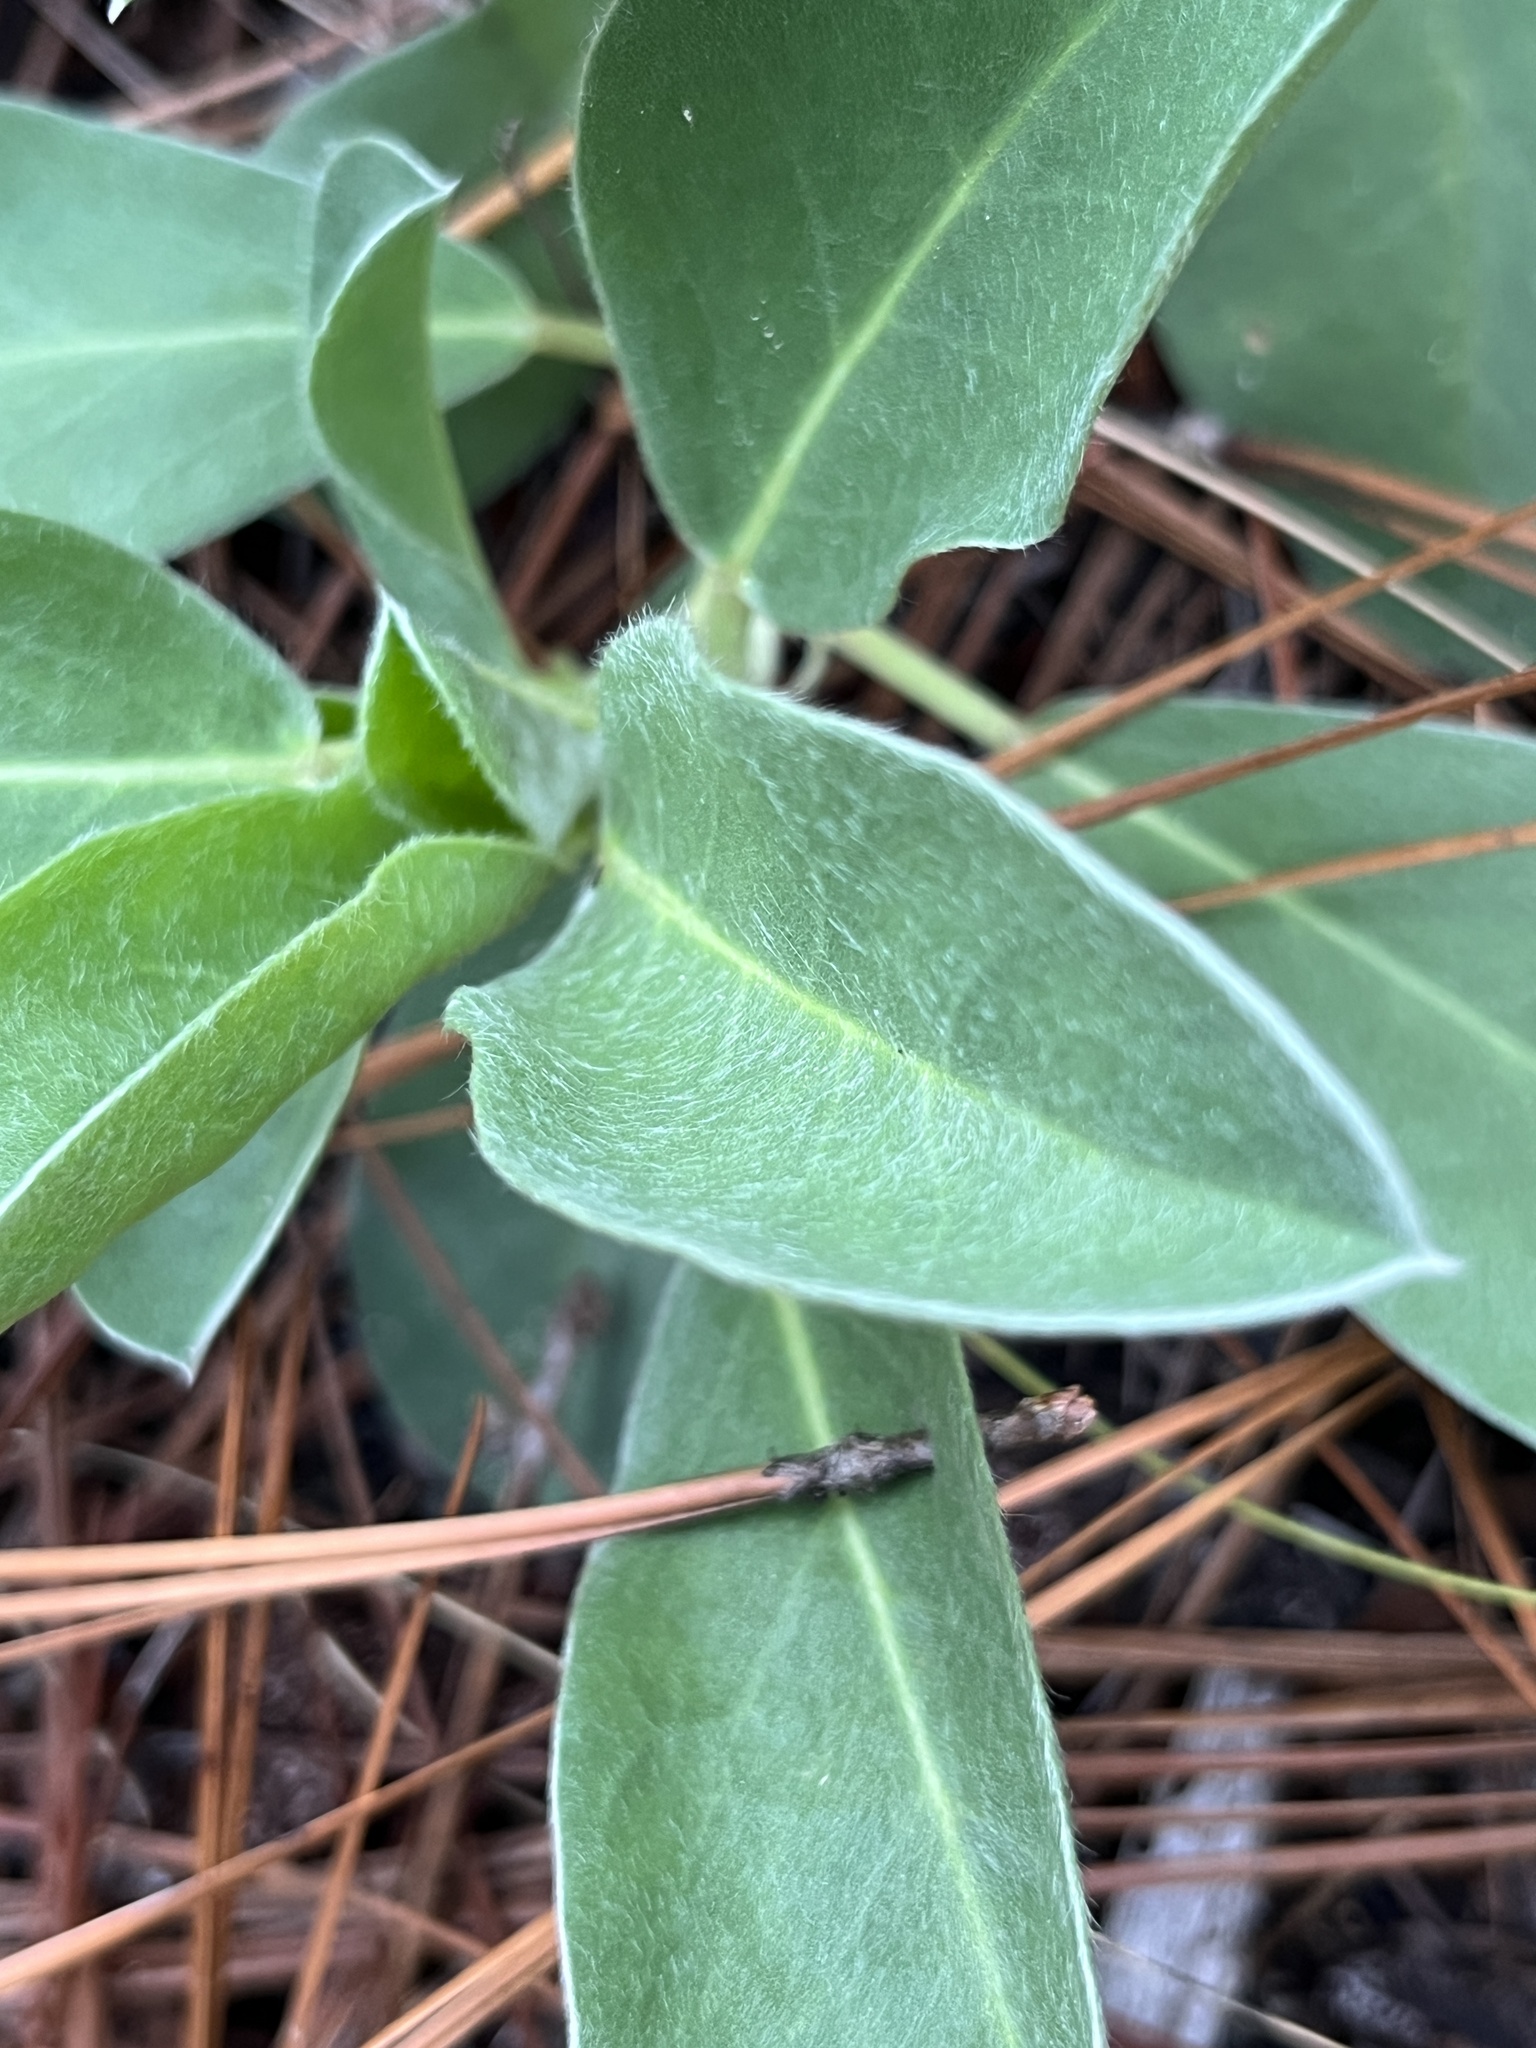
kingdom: Plantae
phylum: Tracheophyta
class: Magnoliopsida
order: Fabales
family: Fabaceae
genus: Lupinus
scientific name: Lupinus diffusus
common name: Oak ridge lupine
